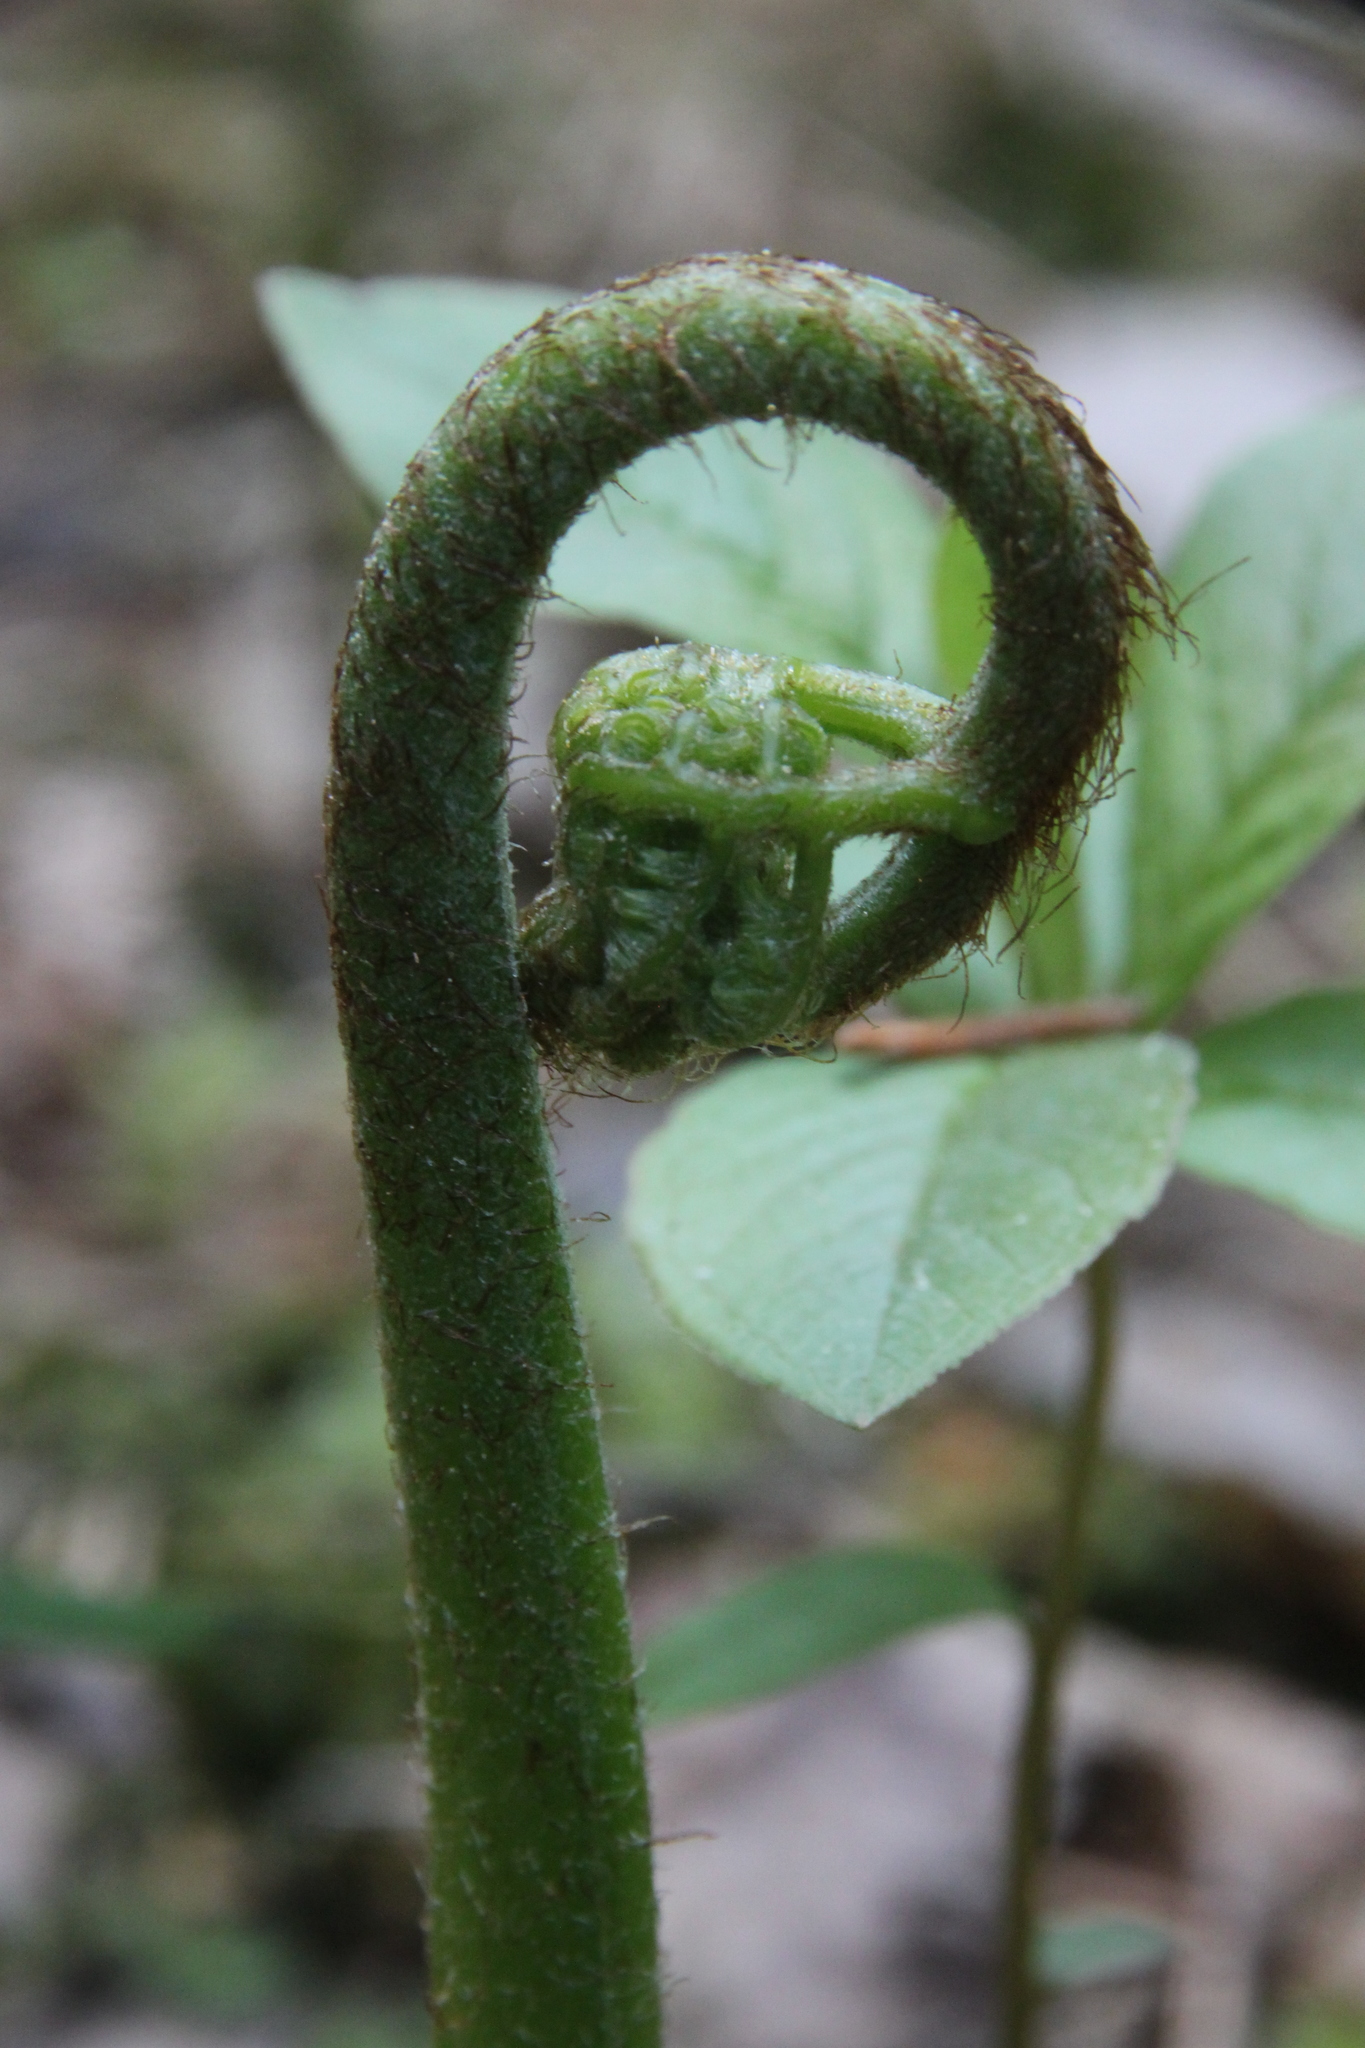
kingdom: Plantae
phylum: Tracheophyta
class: Polypodiopsida
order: Polypodiales
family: Dennstaedtiaceae
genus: Pteridium
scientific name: Pteridium aquilinum
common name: Bracken
